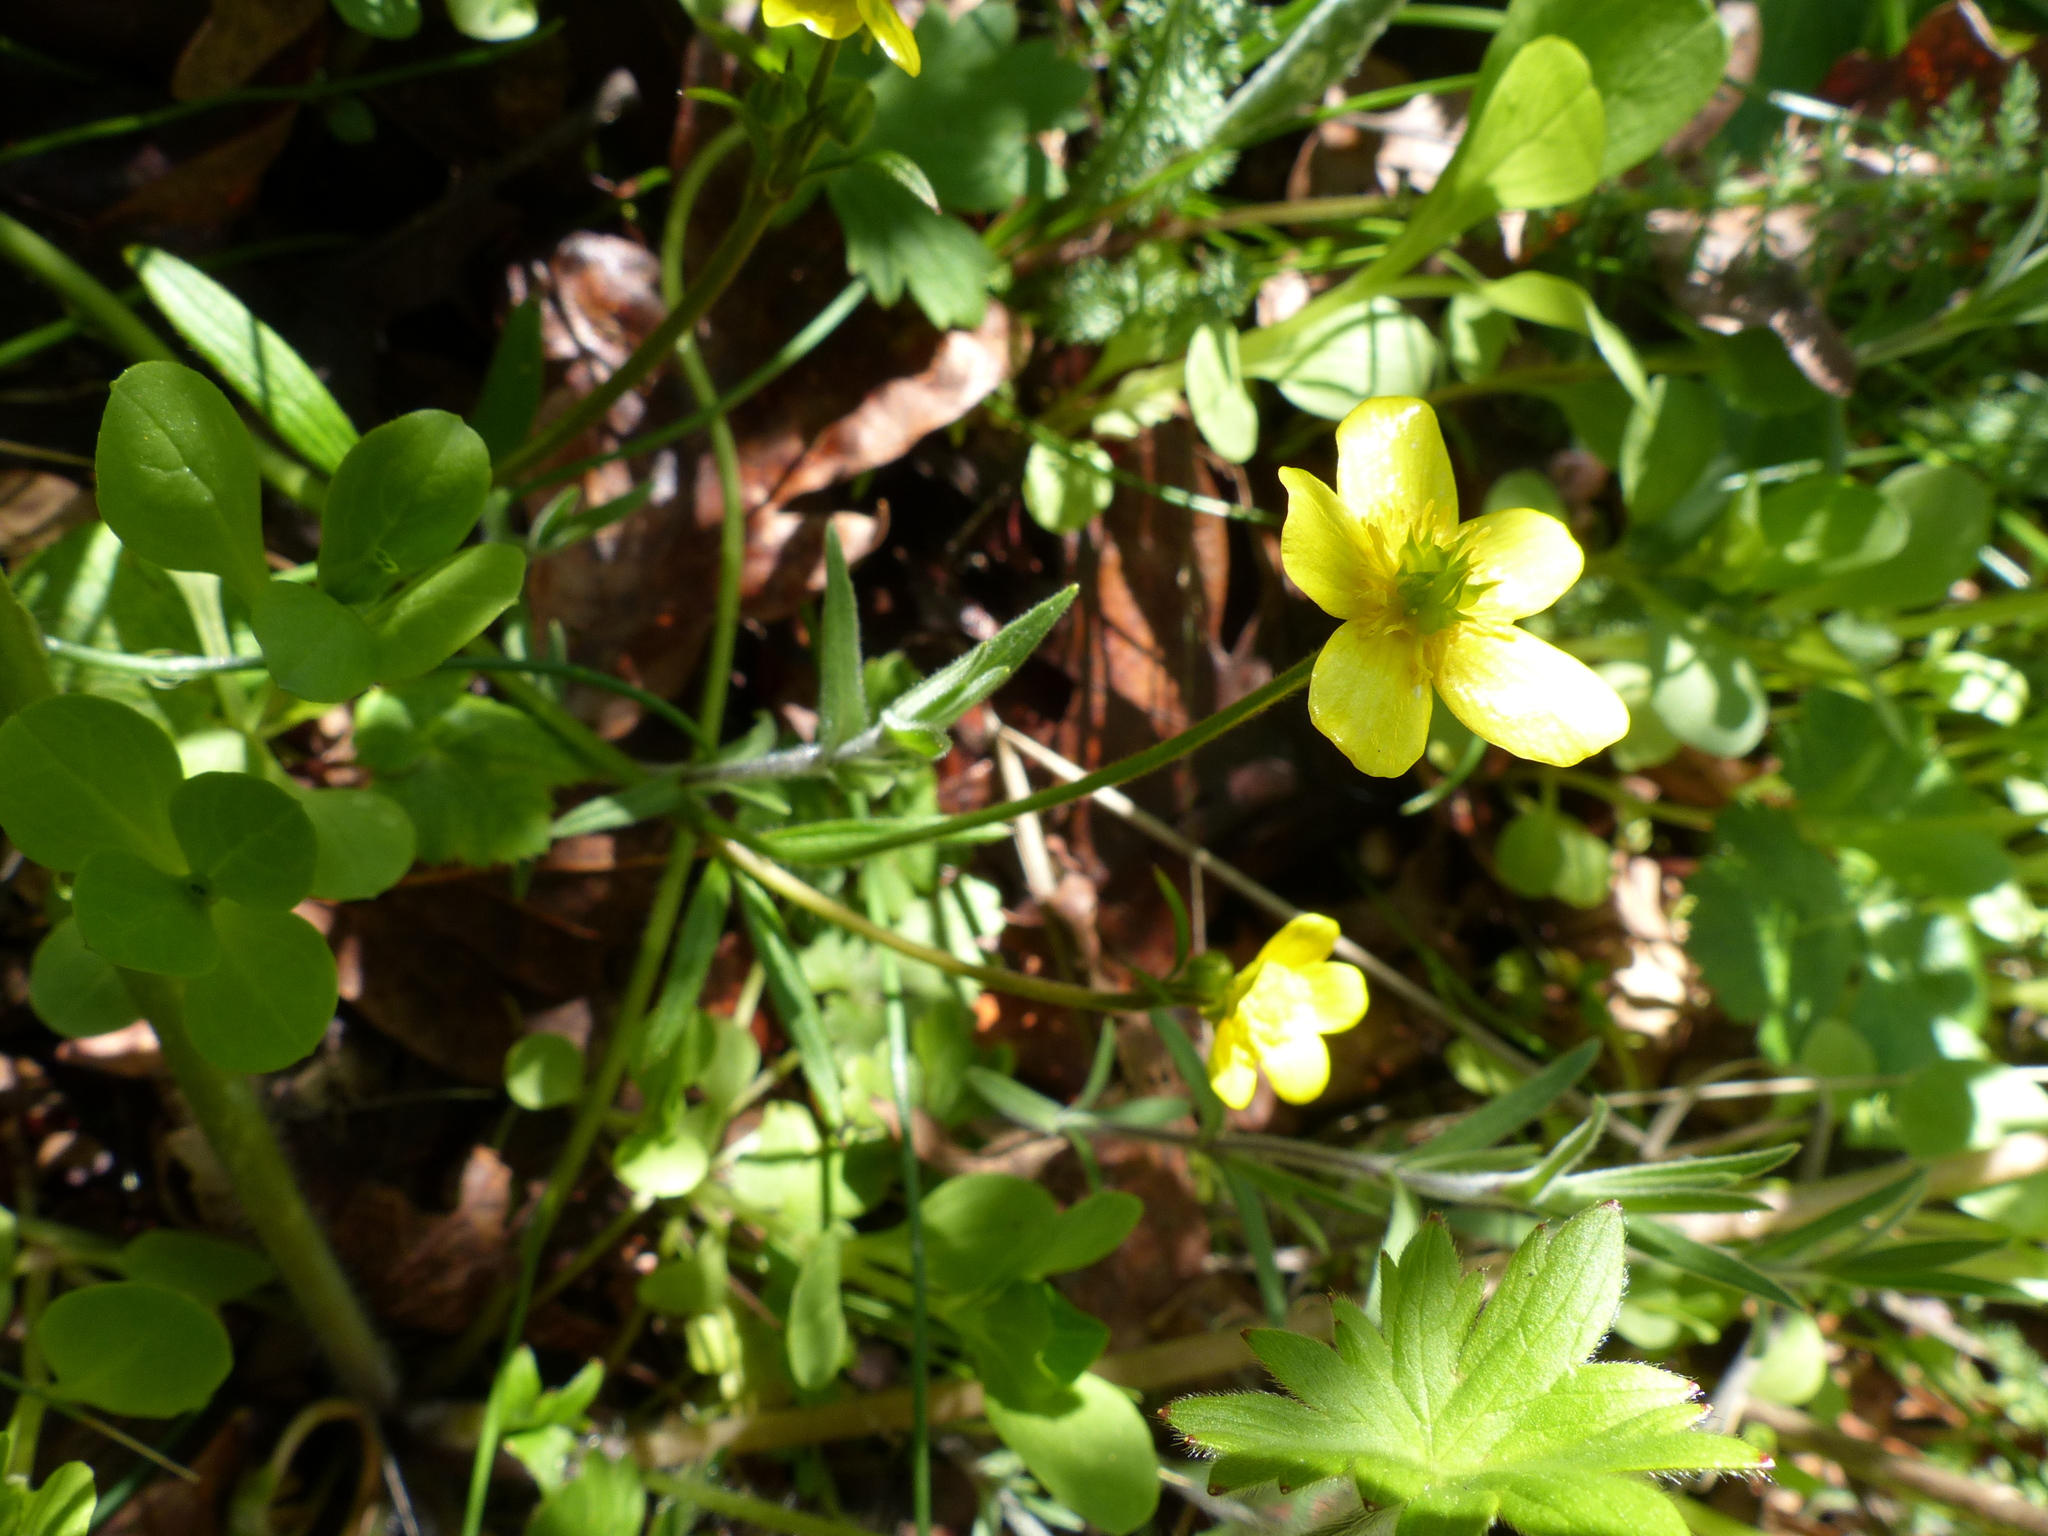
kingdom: Plantae
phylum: Tracheophyta
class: Magnoliopsida
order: Ranunculales
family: Ranunculaceae
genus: Ranunculus
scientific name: Ranunculus occidentalis
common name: Western buttercup
